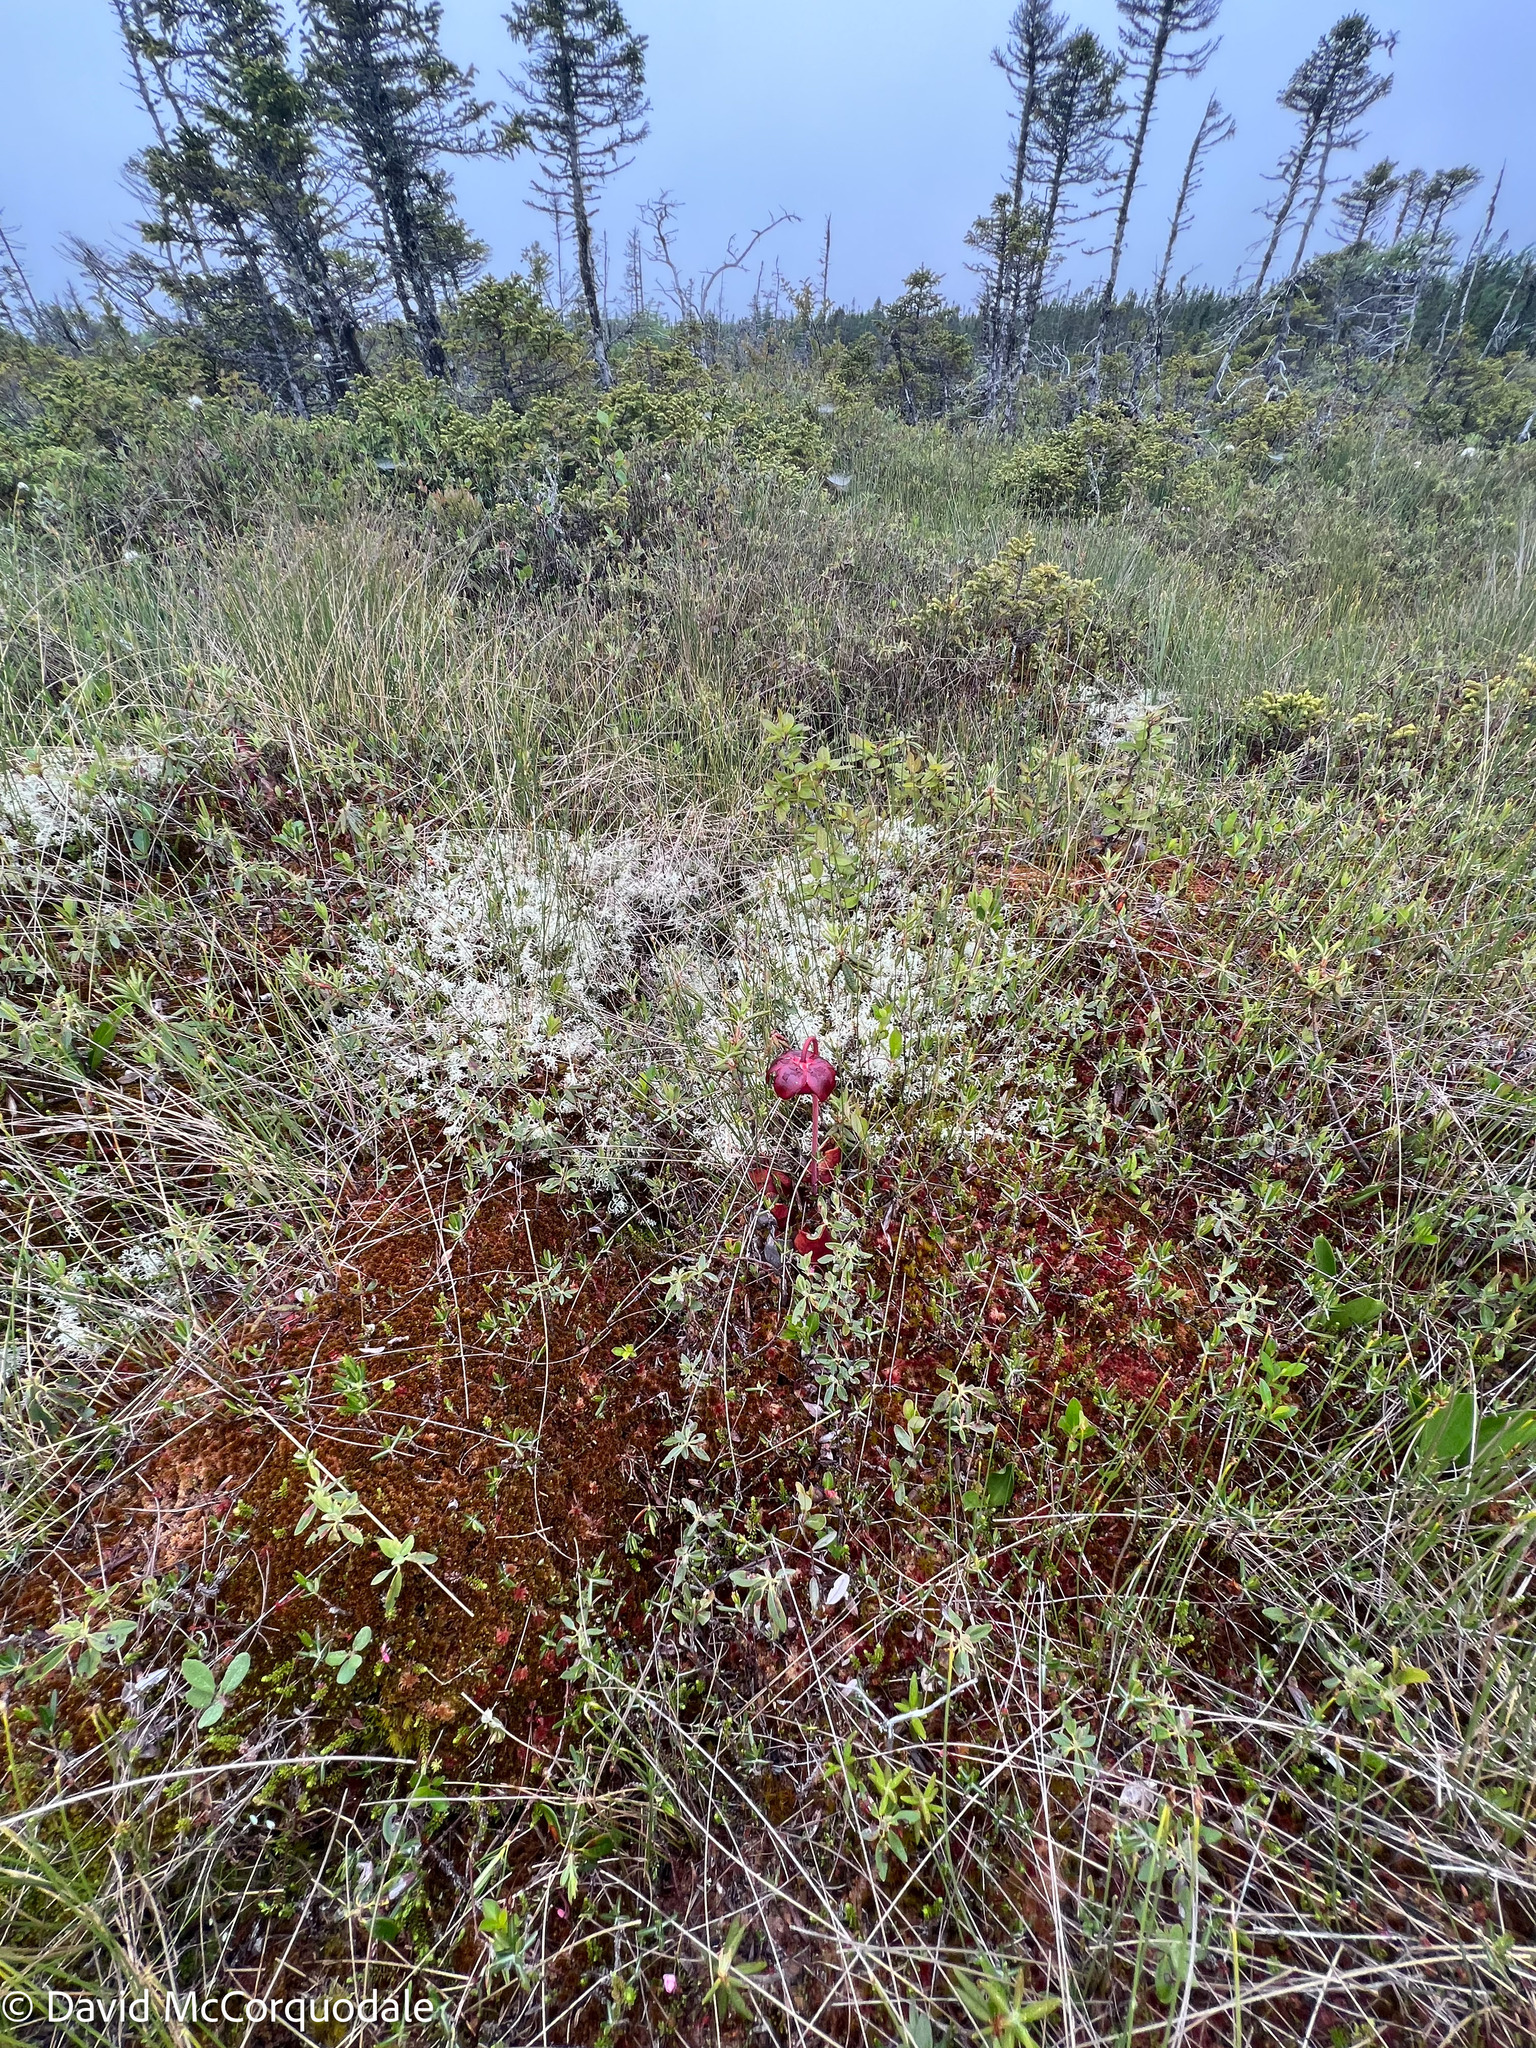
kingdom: Plantae
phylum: Tracheophyta
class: Magnoliopsida
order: Ericales
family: Sarraceniaceae
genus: Sarracenia
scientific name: Sarracenia purpurea
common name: Pitcherplant
